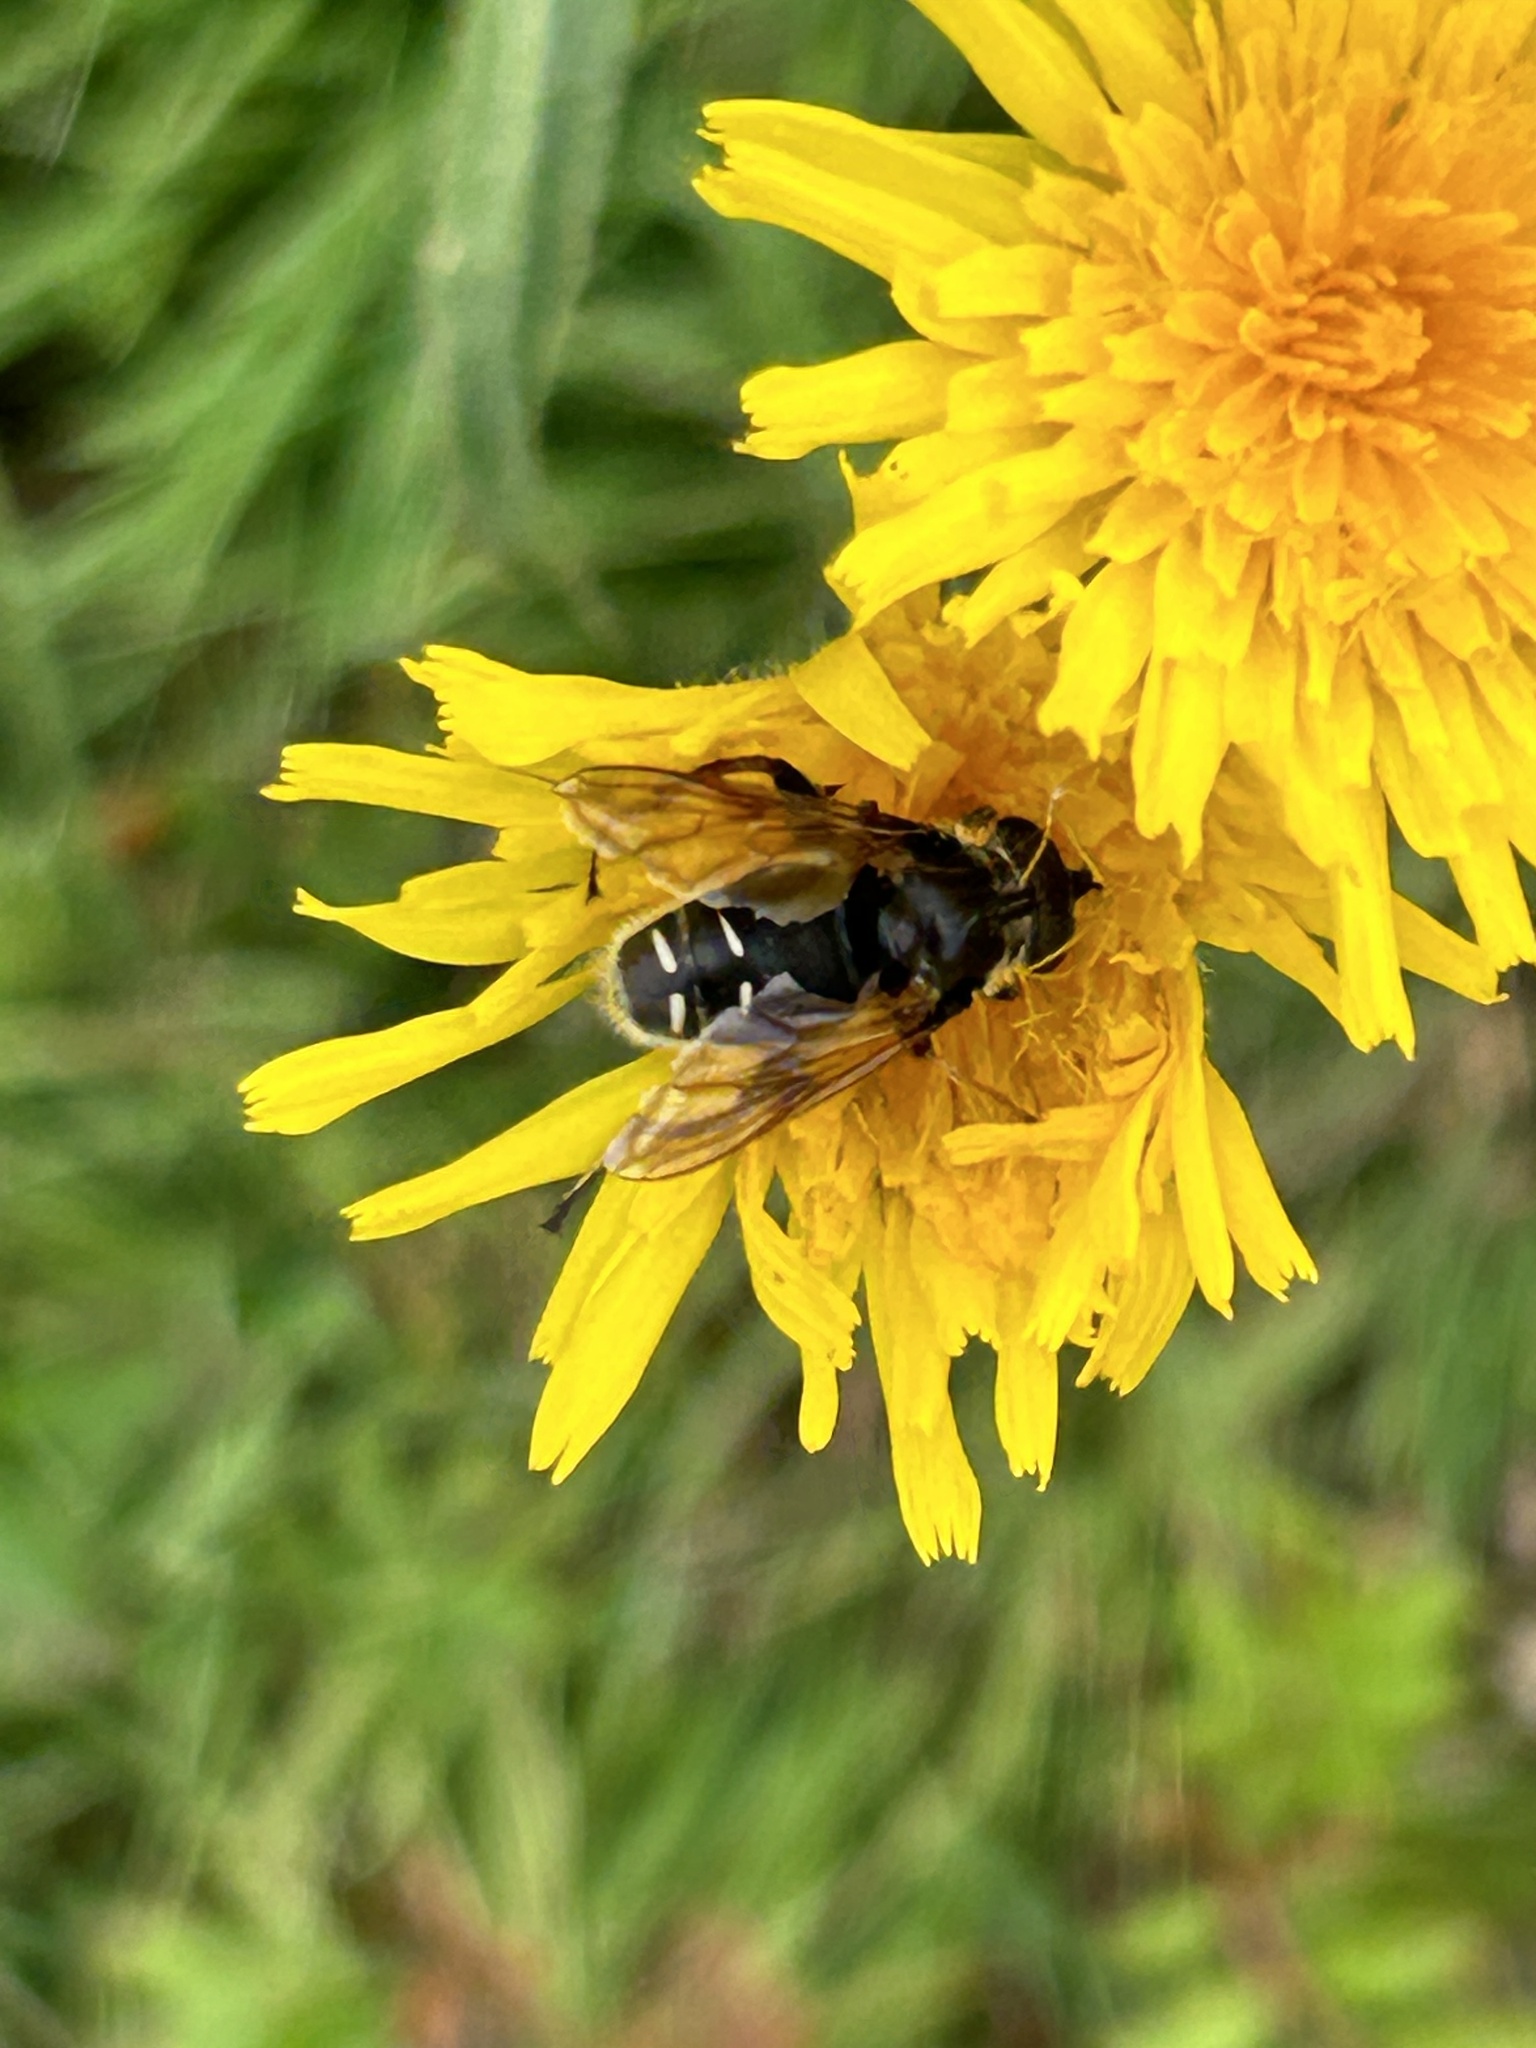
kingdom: Animalia
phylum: Arthropoda
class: Insecta
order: Diptera
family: Syrphidae
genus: Sericomyia
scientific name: Sericomyia militaris
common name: Narrow-banded pond fly
